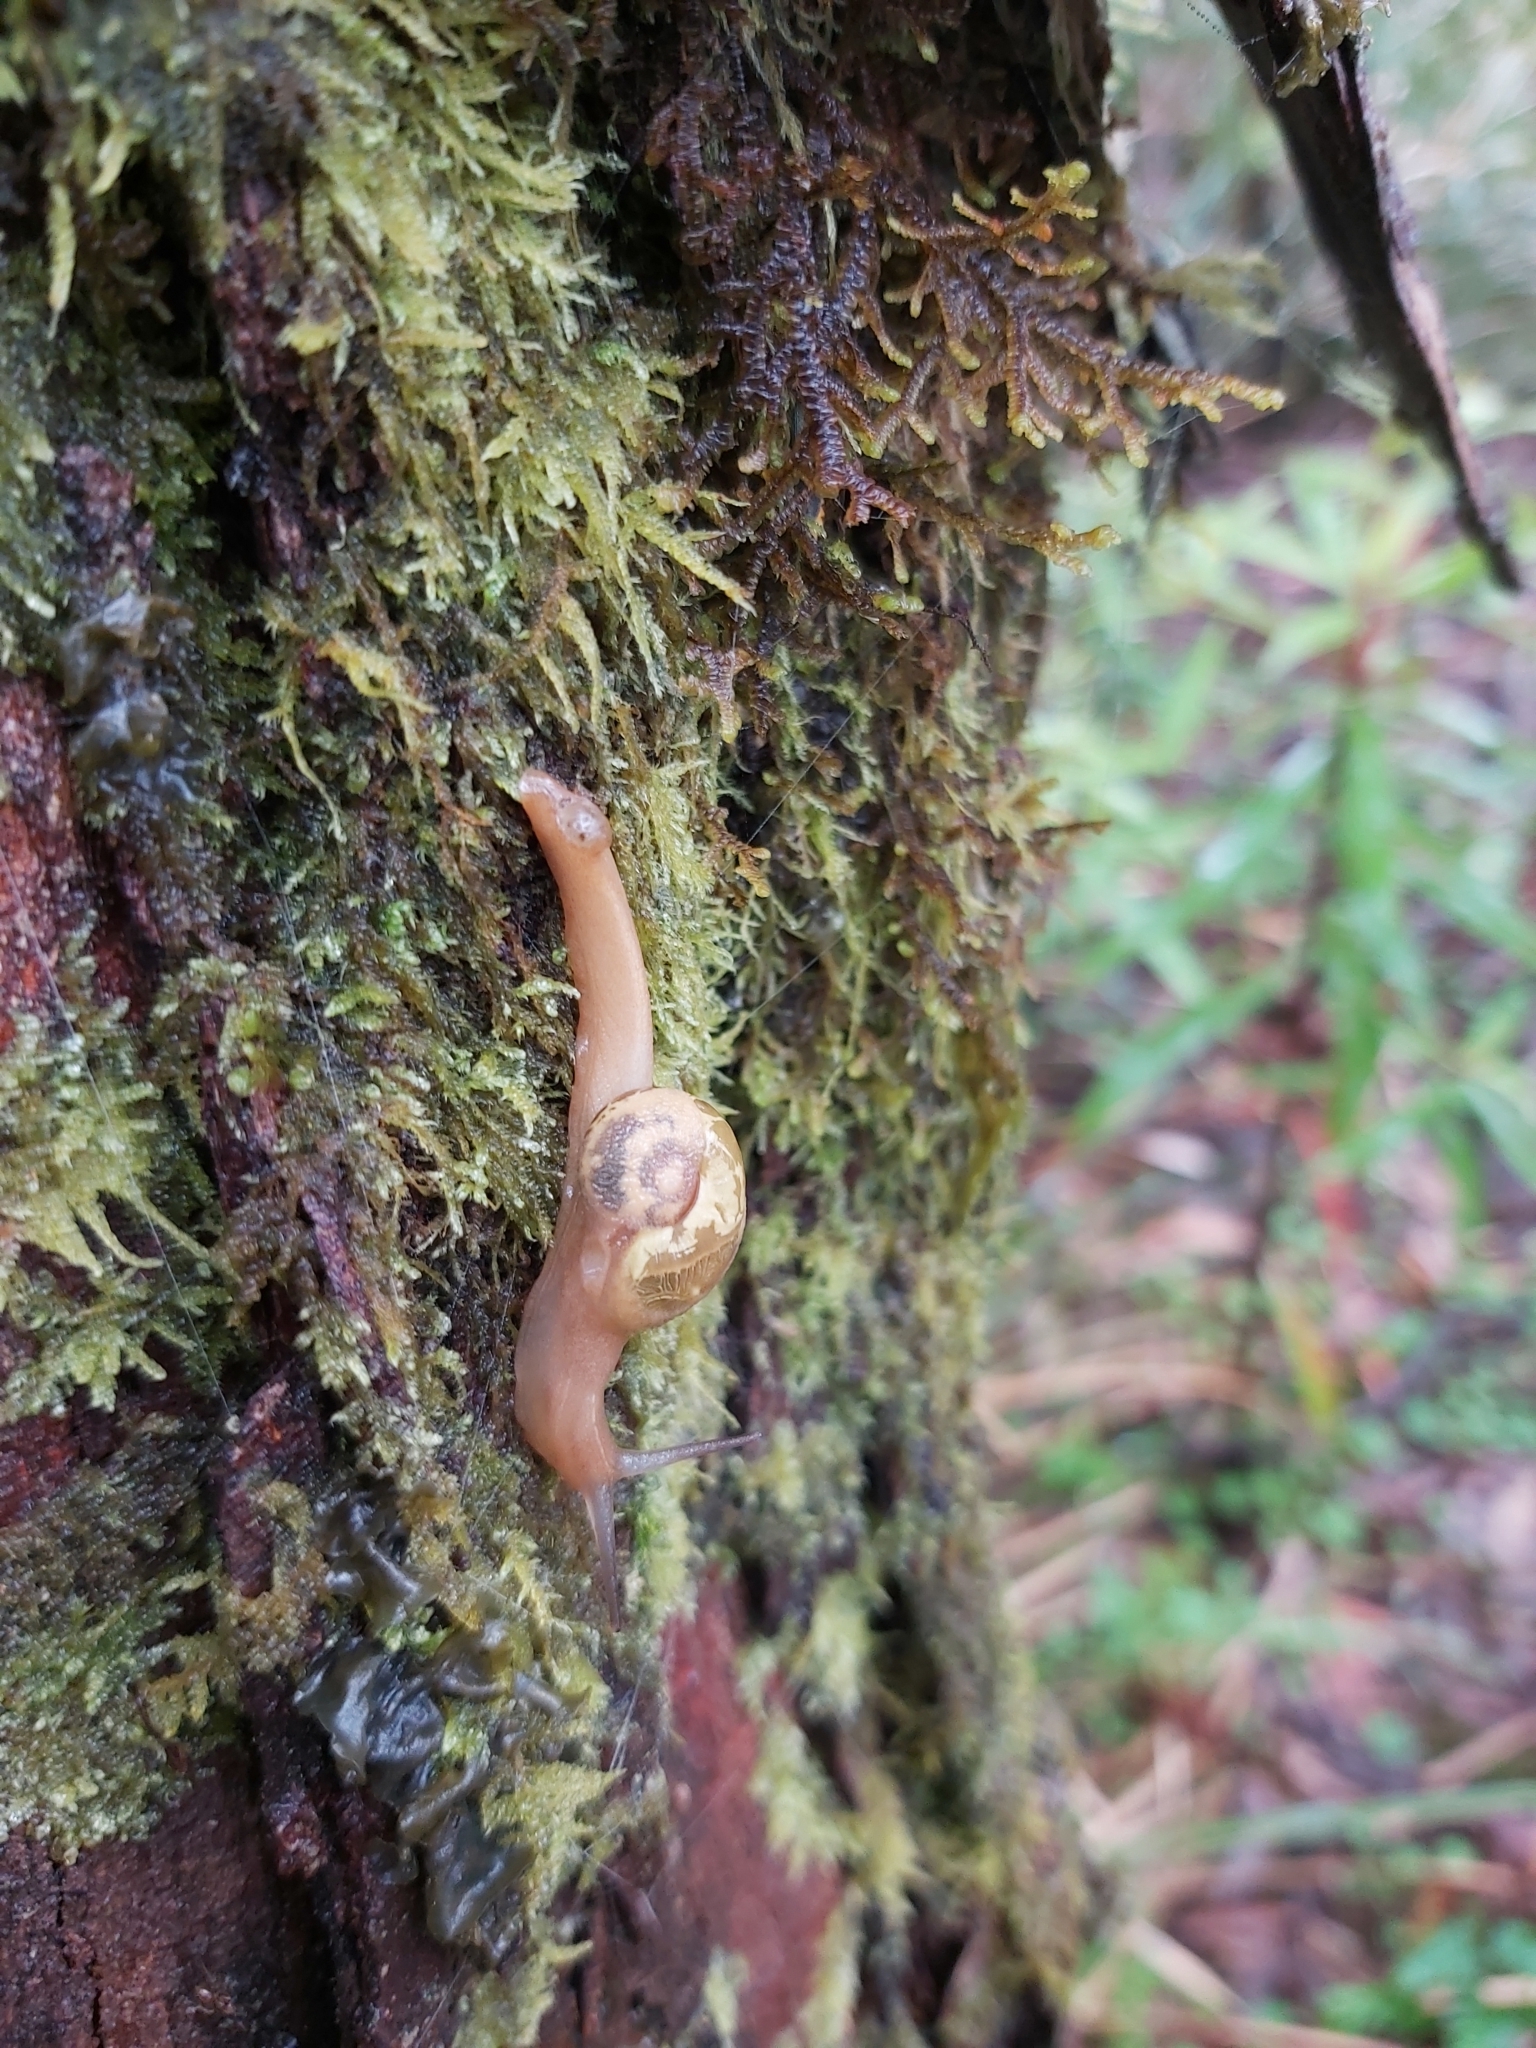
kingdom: Animalia
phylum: Mollusca
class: Gastropoda
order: Stylommatophora
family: Helicarionidae
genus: Mysticarion
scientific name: Mysticarion porrectus
